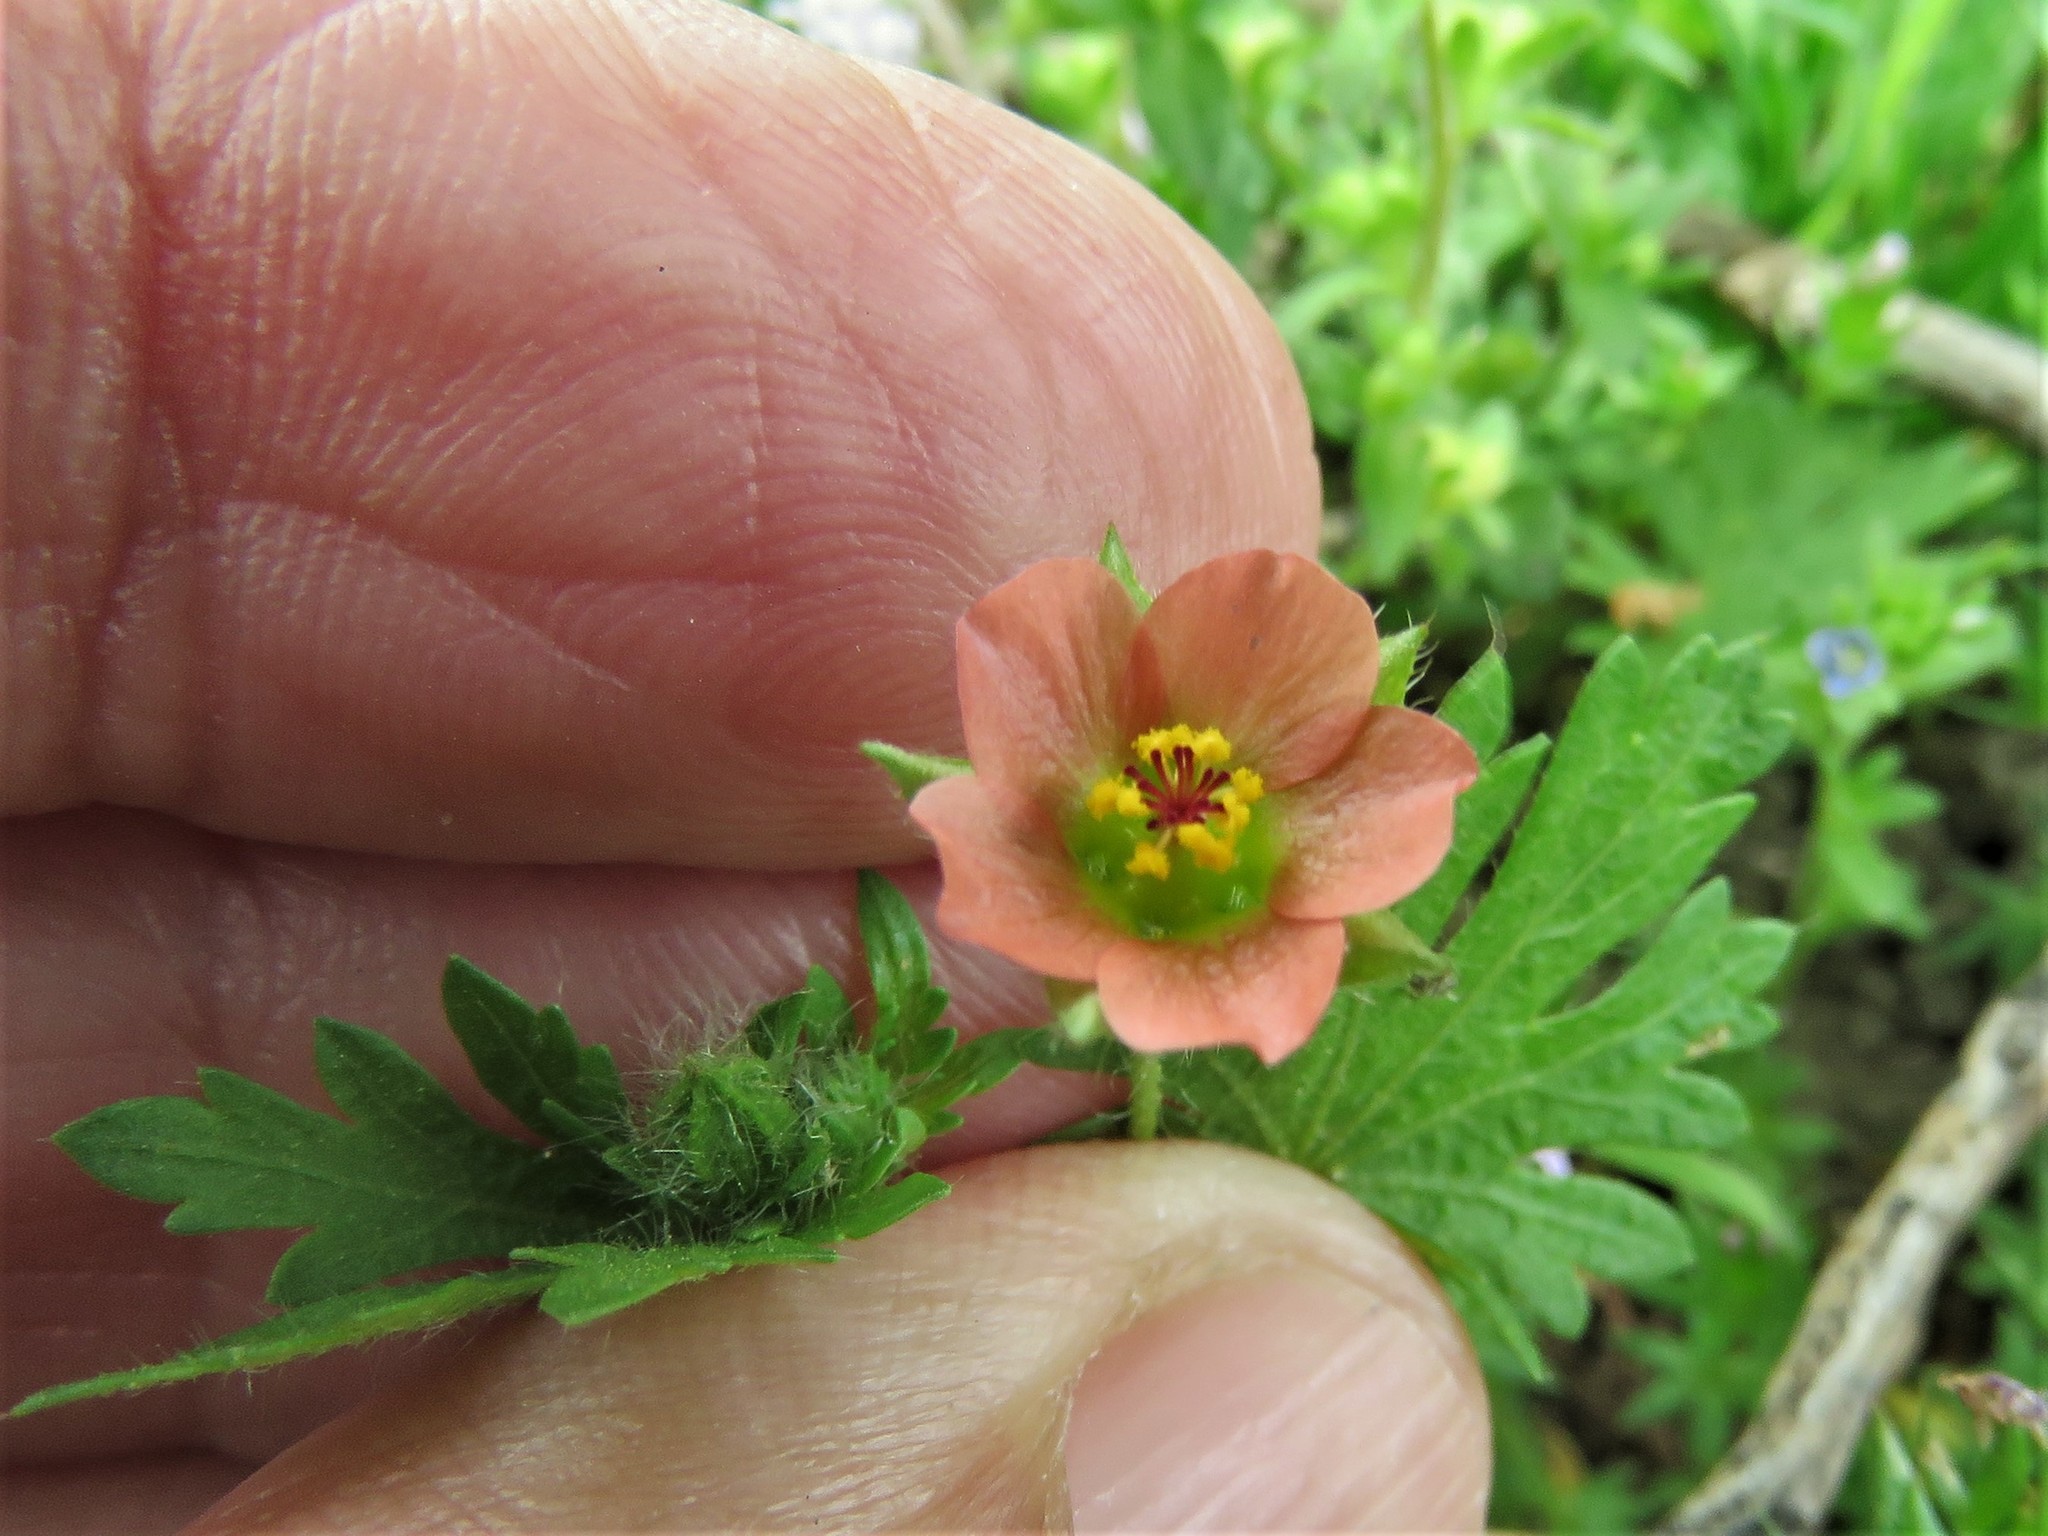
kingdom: Plantae
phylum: Tracheophyta
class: Magnoliopsida
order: Malvales
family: Malvaceae
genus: Modiola
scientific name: Modiola caroliniana
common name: Carolina bristlemallow
